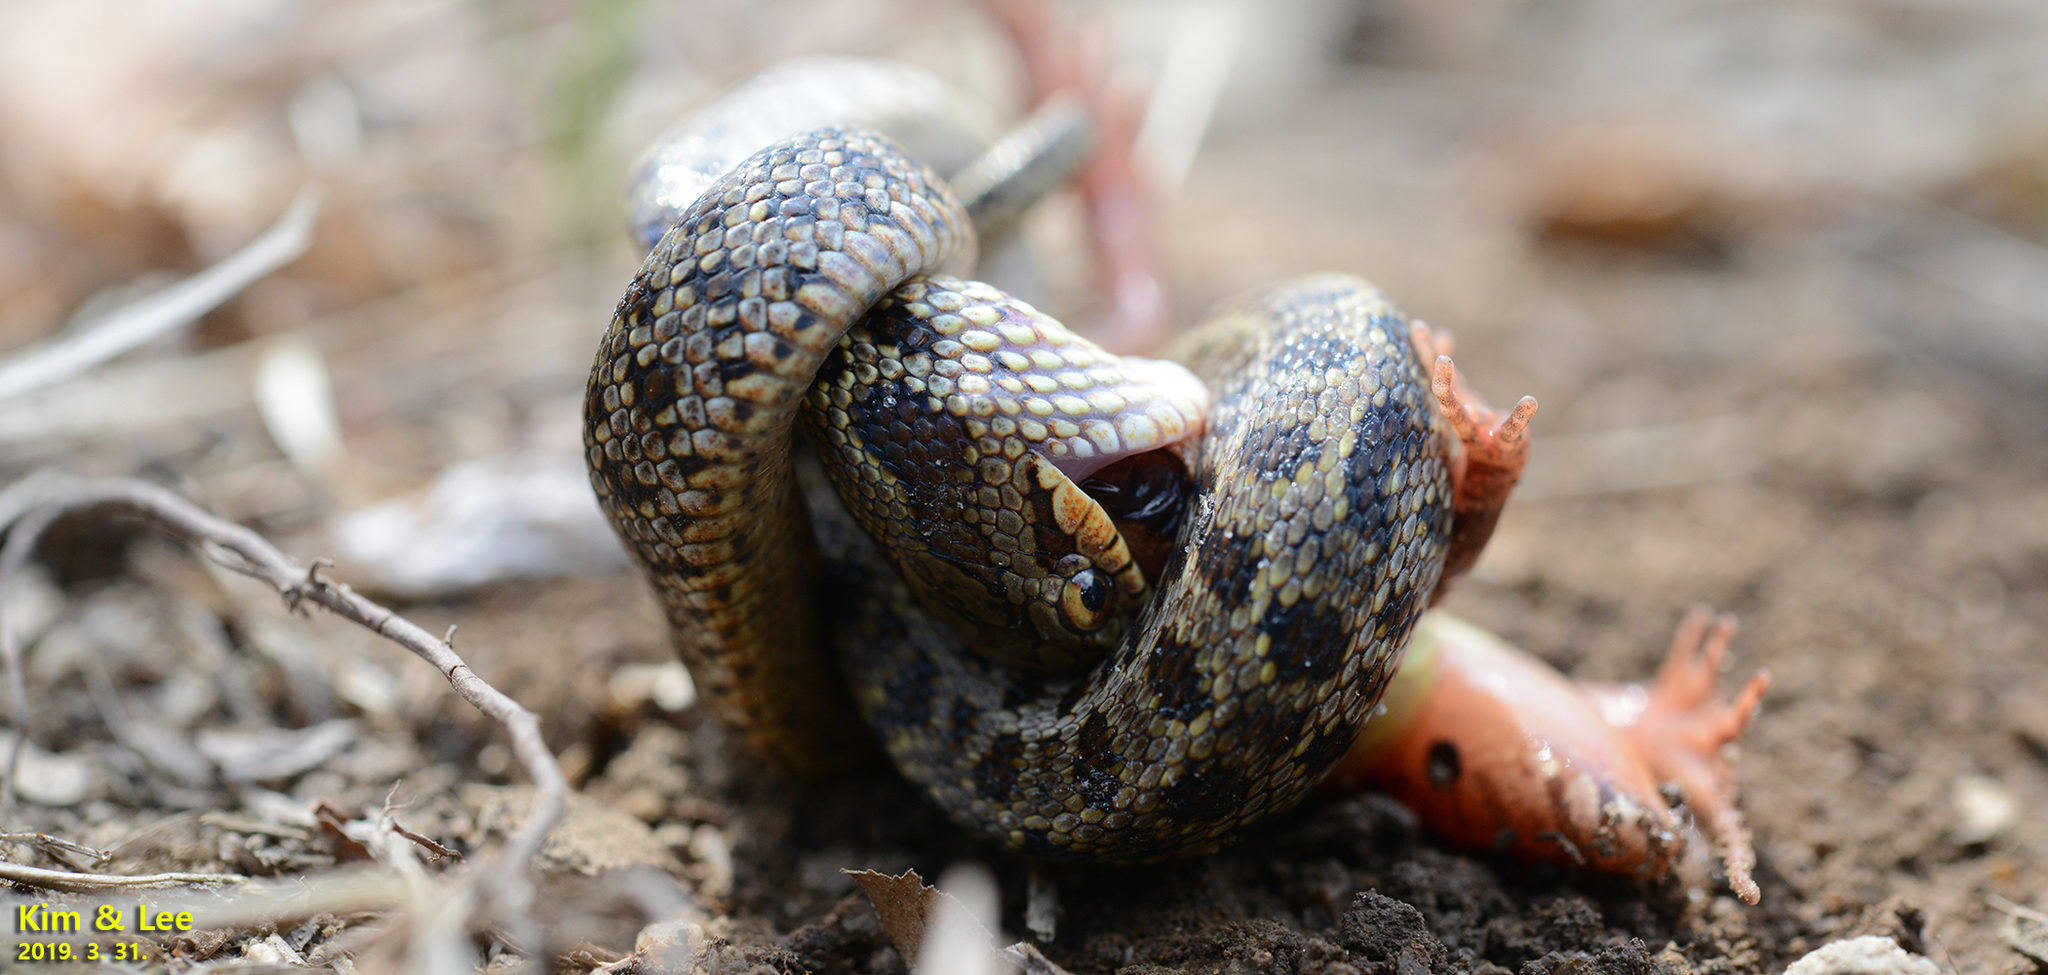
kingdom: Animalia
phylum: Chordata
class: Squamata
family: Colubridae
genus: Elaphe
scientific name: Elaphe dione
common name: Dione ratsnake
